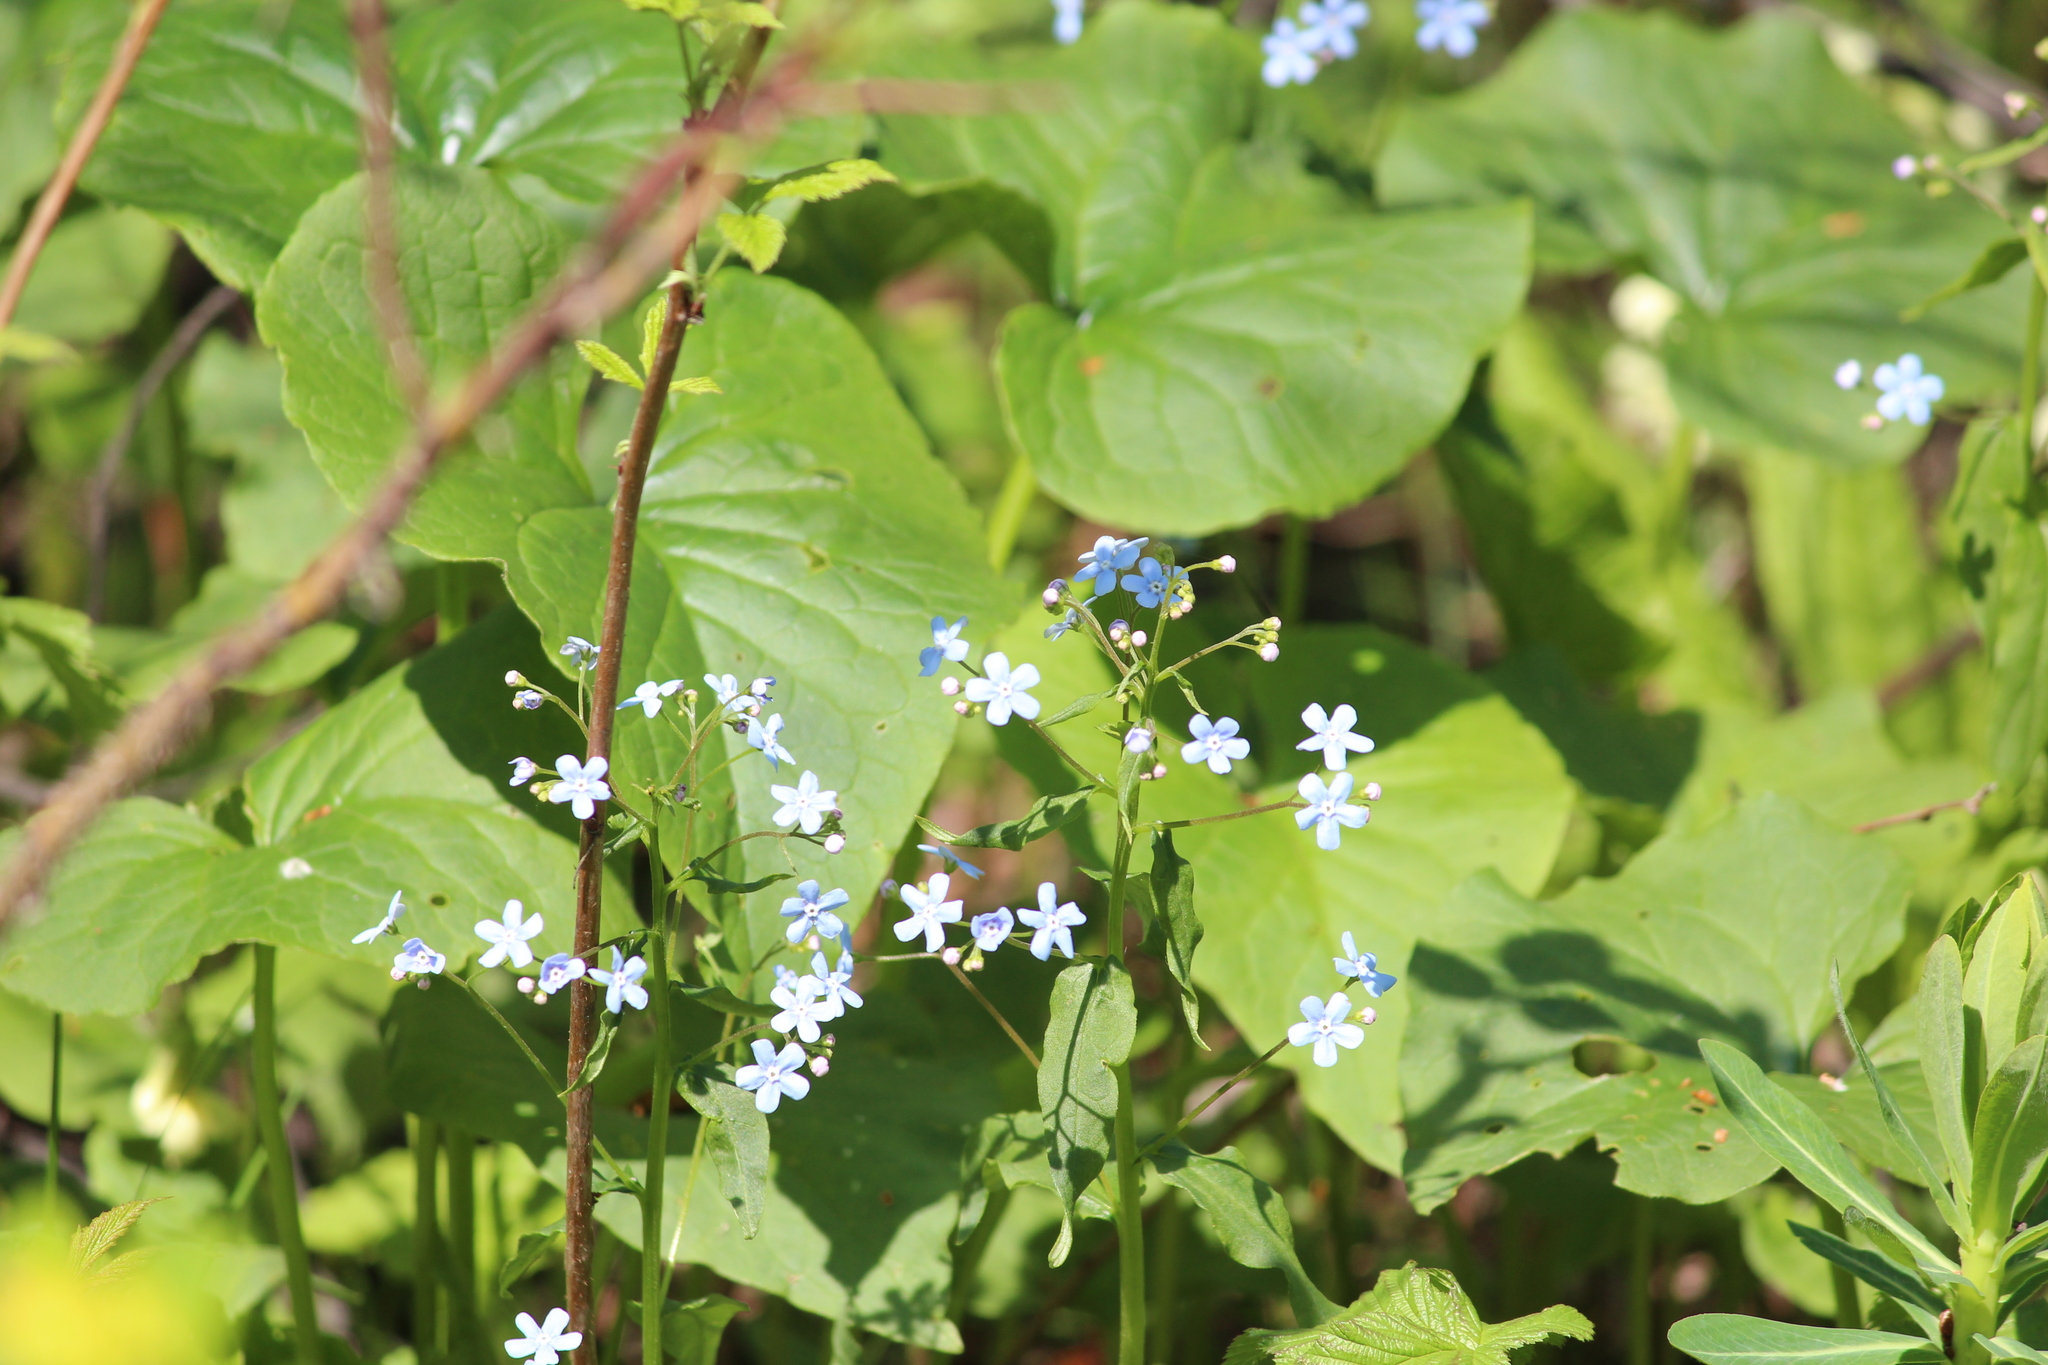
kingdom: Plantae
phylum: Tracheophyta
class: Magnoliopsida
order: Boraginales
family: Boraginaceae
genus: Brunnera
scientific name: Brunnera sibirica
